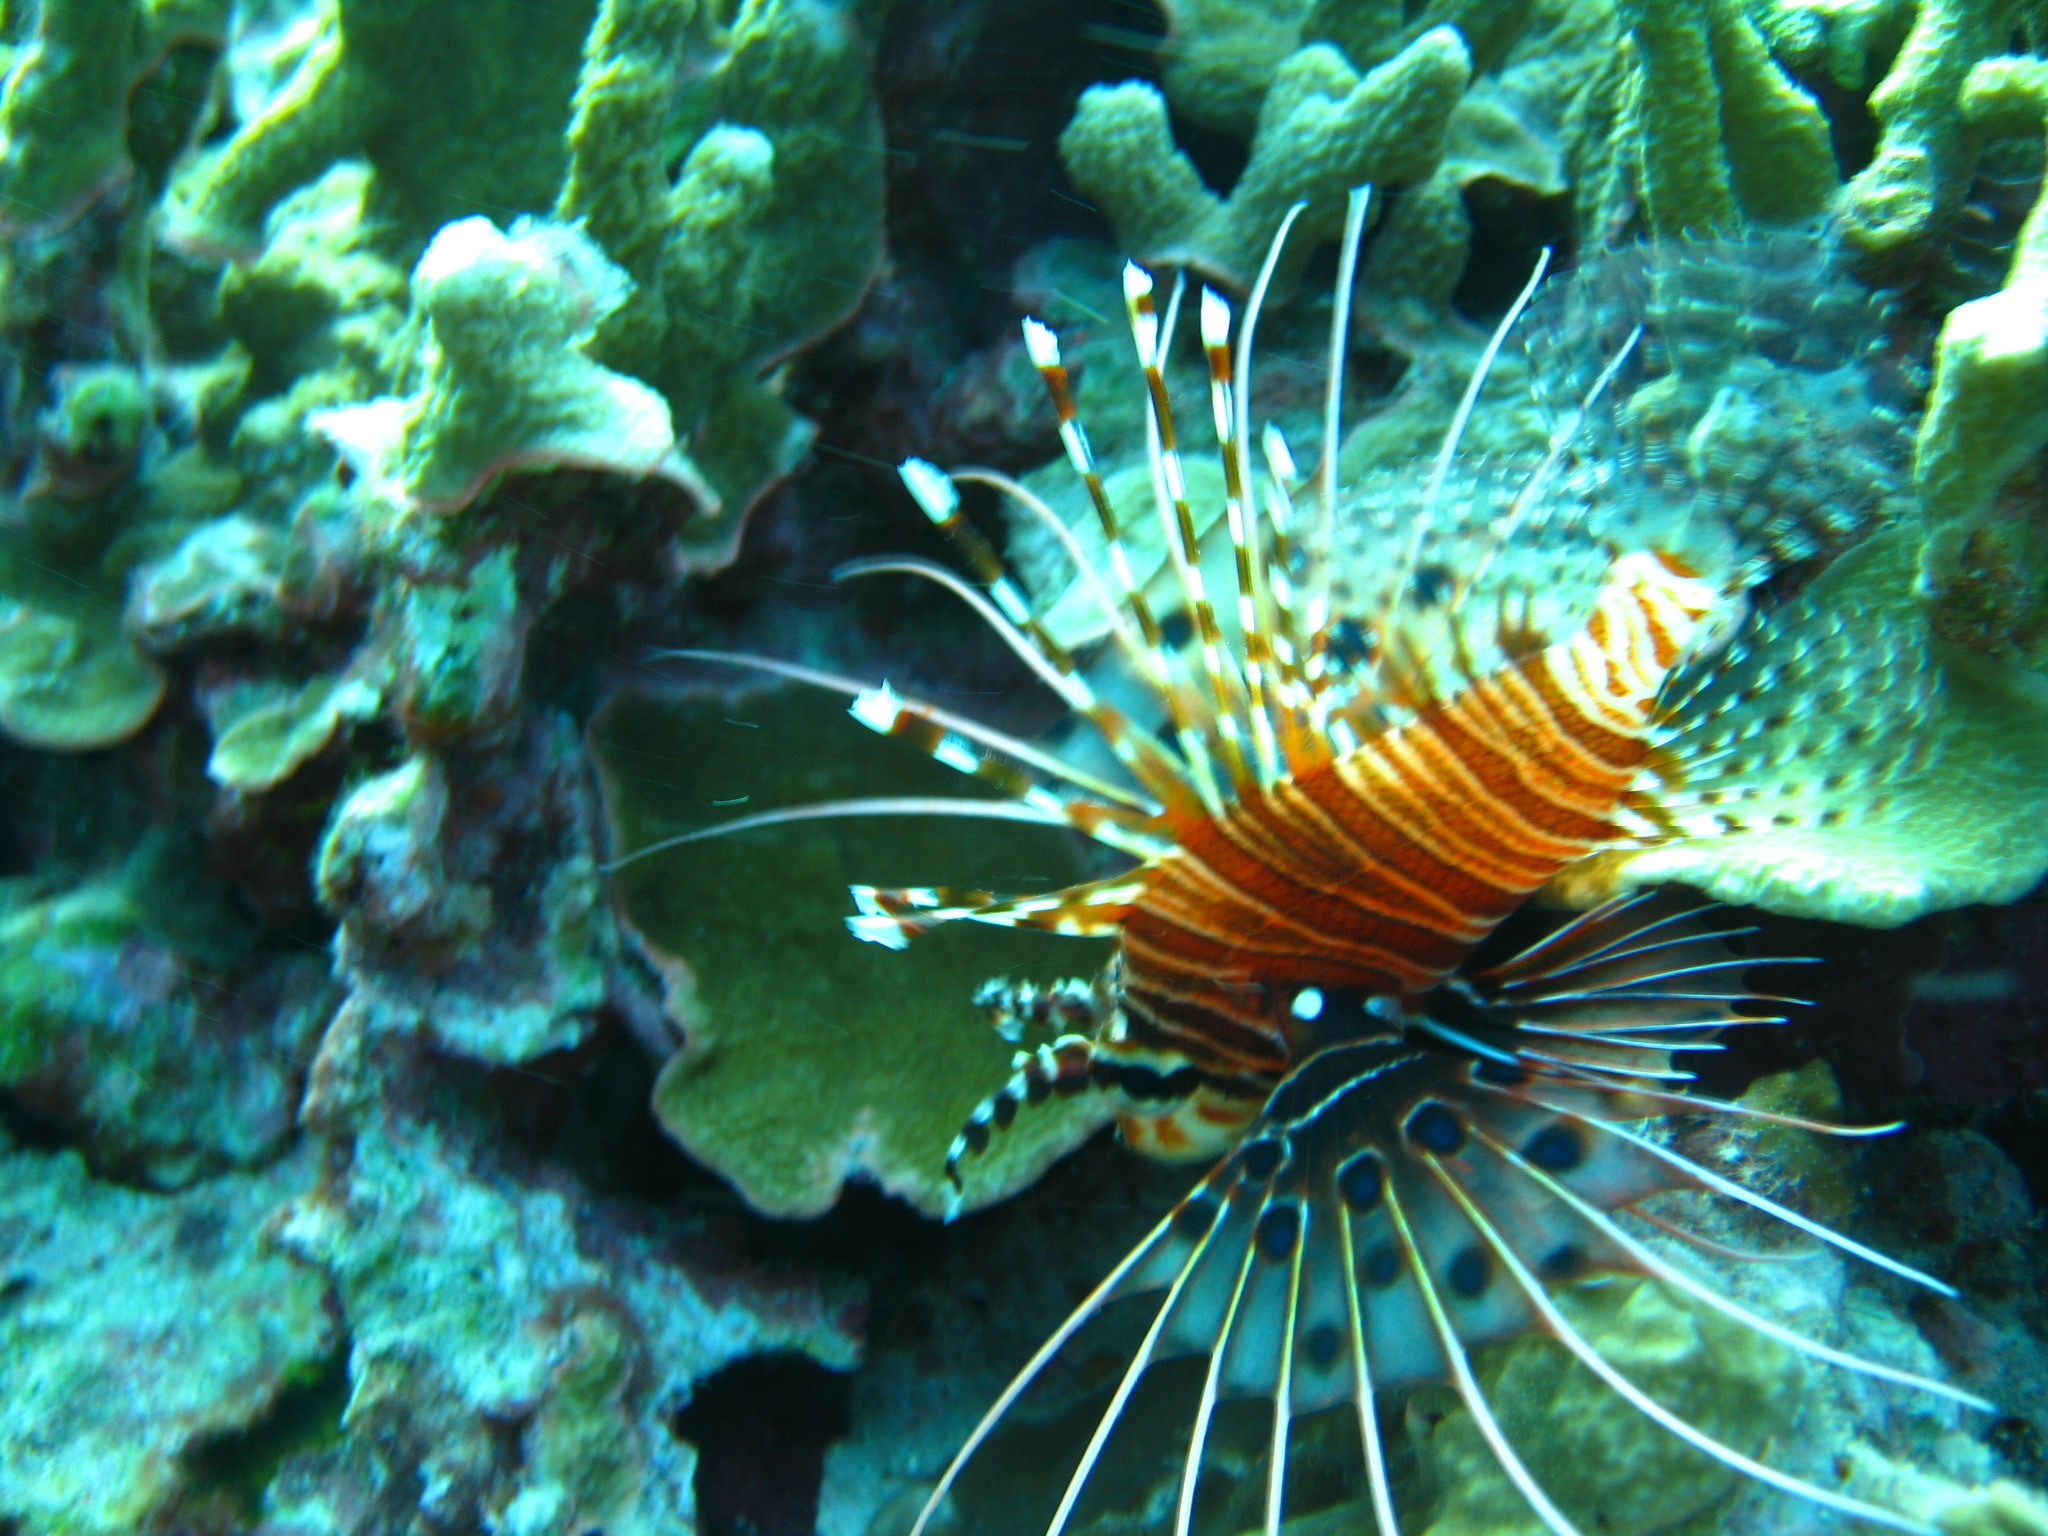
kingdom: Animalia
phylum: Chordata
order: Scorpaeniformes
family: Scorpaenidae
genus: Pterois
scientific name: Pterois antennata
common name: Spotfin lionfish
